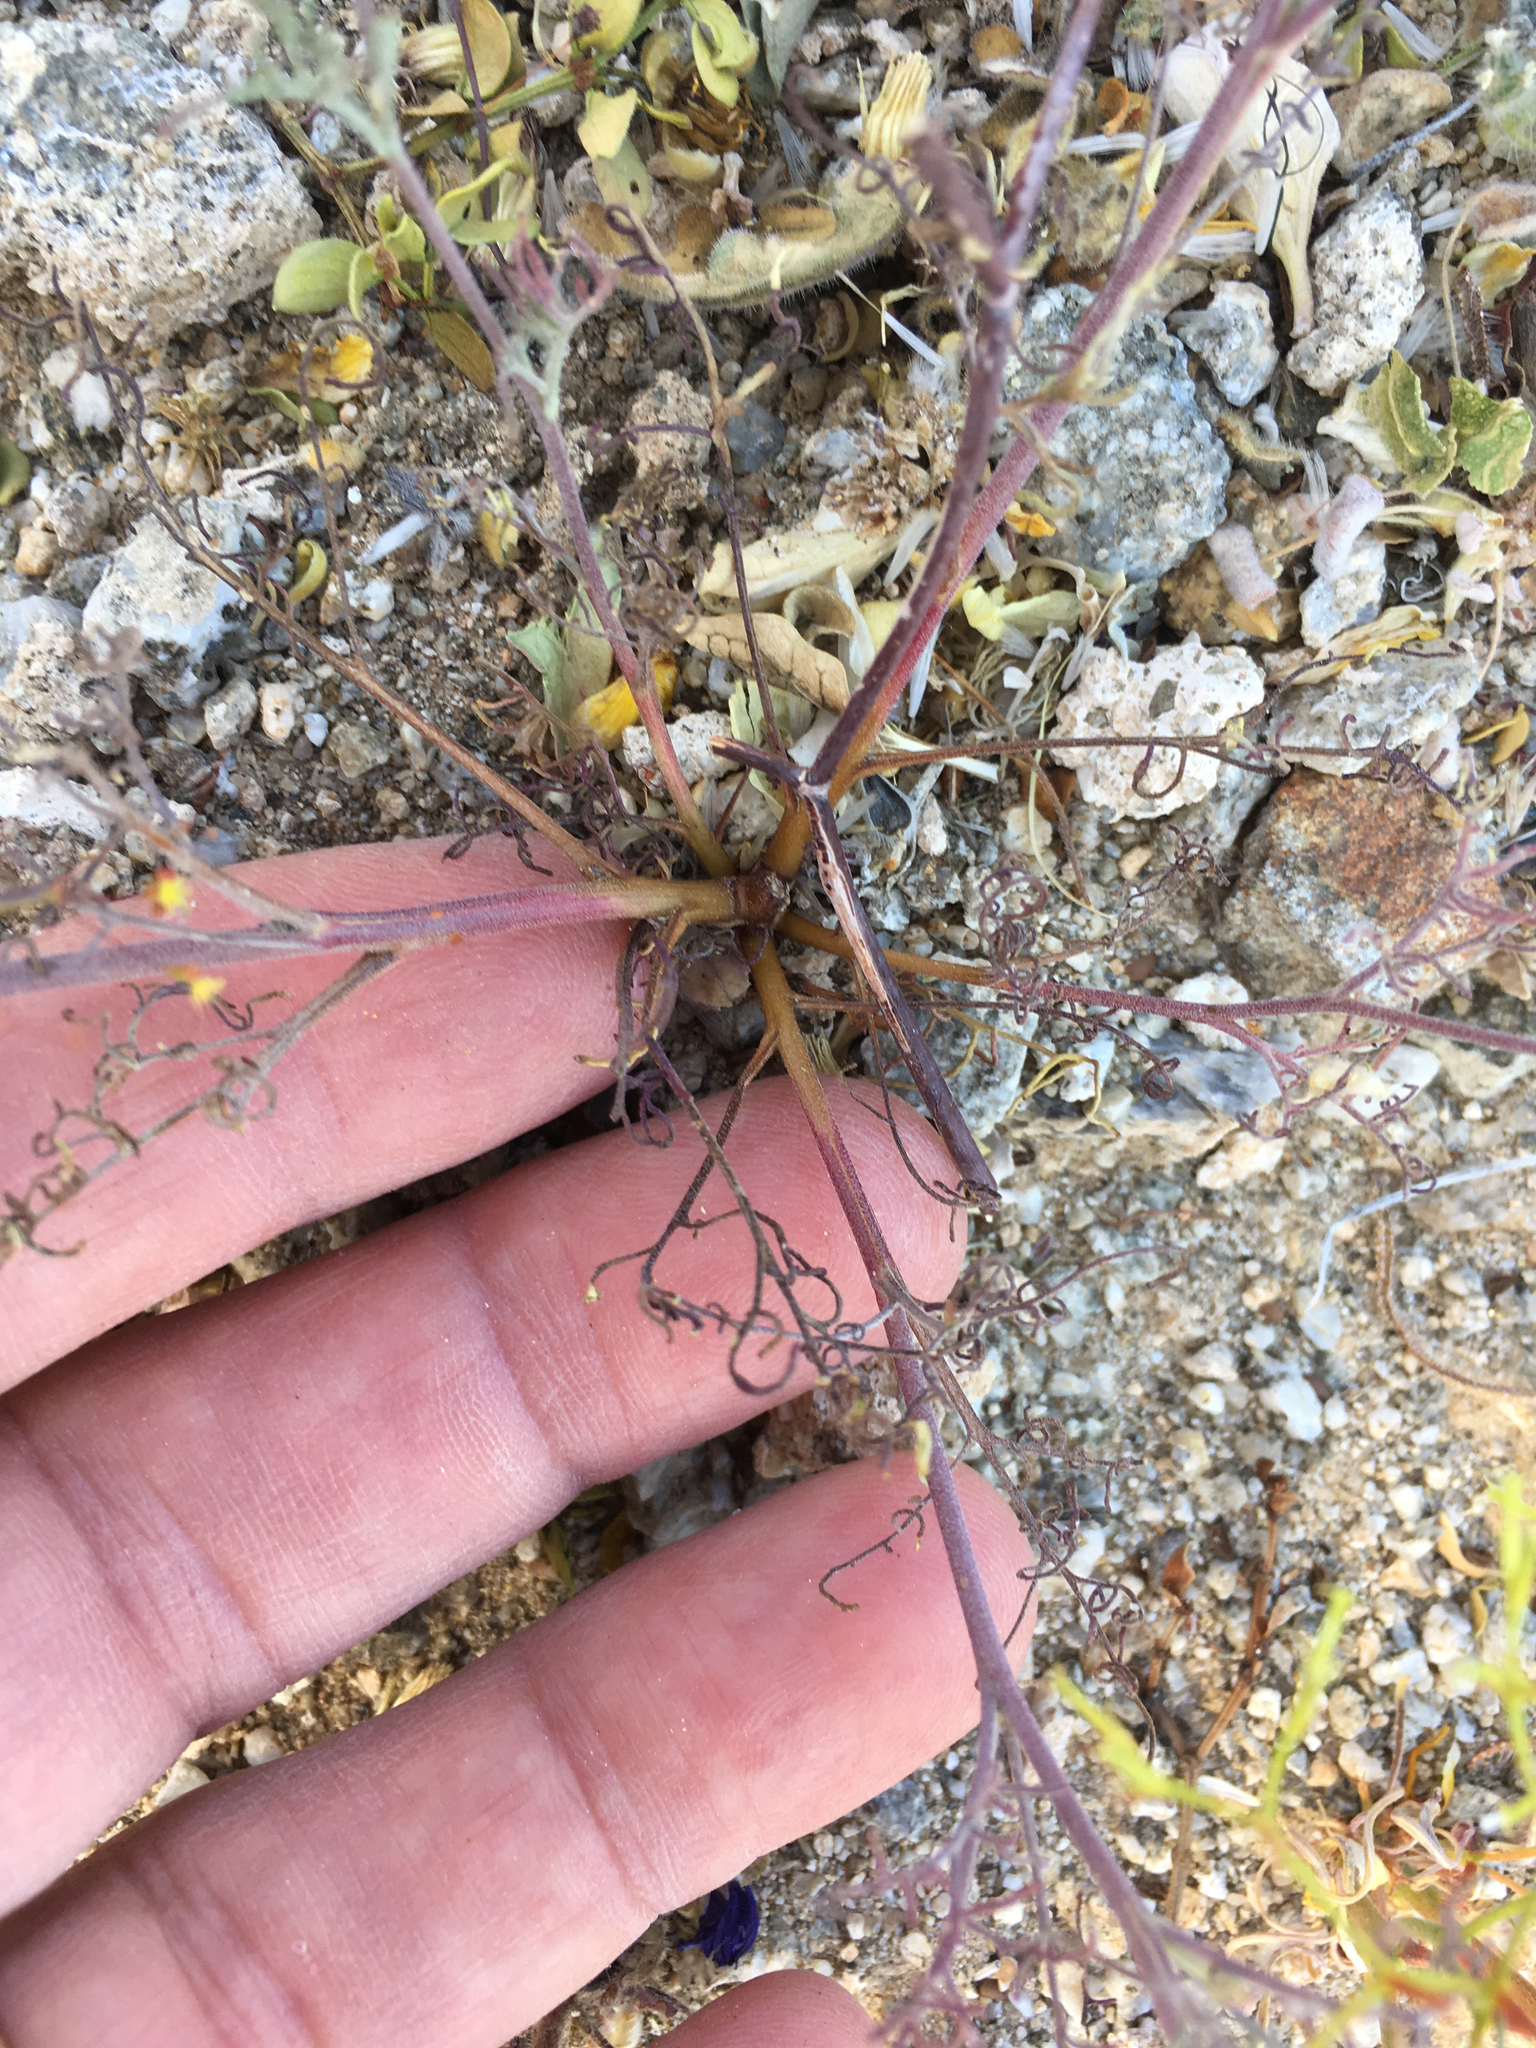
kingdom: Plantae
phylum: Tracheophyta
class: Magnoliopsida
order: Asterales
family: Asteraceae
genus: Chaenactis
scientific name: Chaenactis carphoclinia
